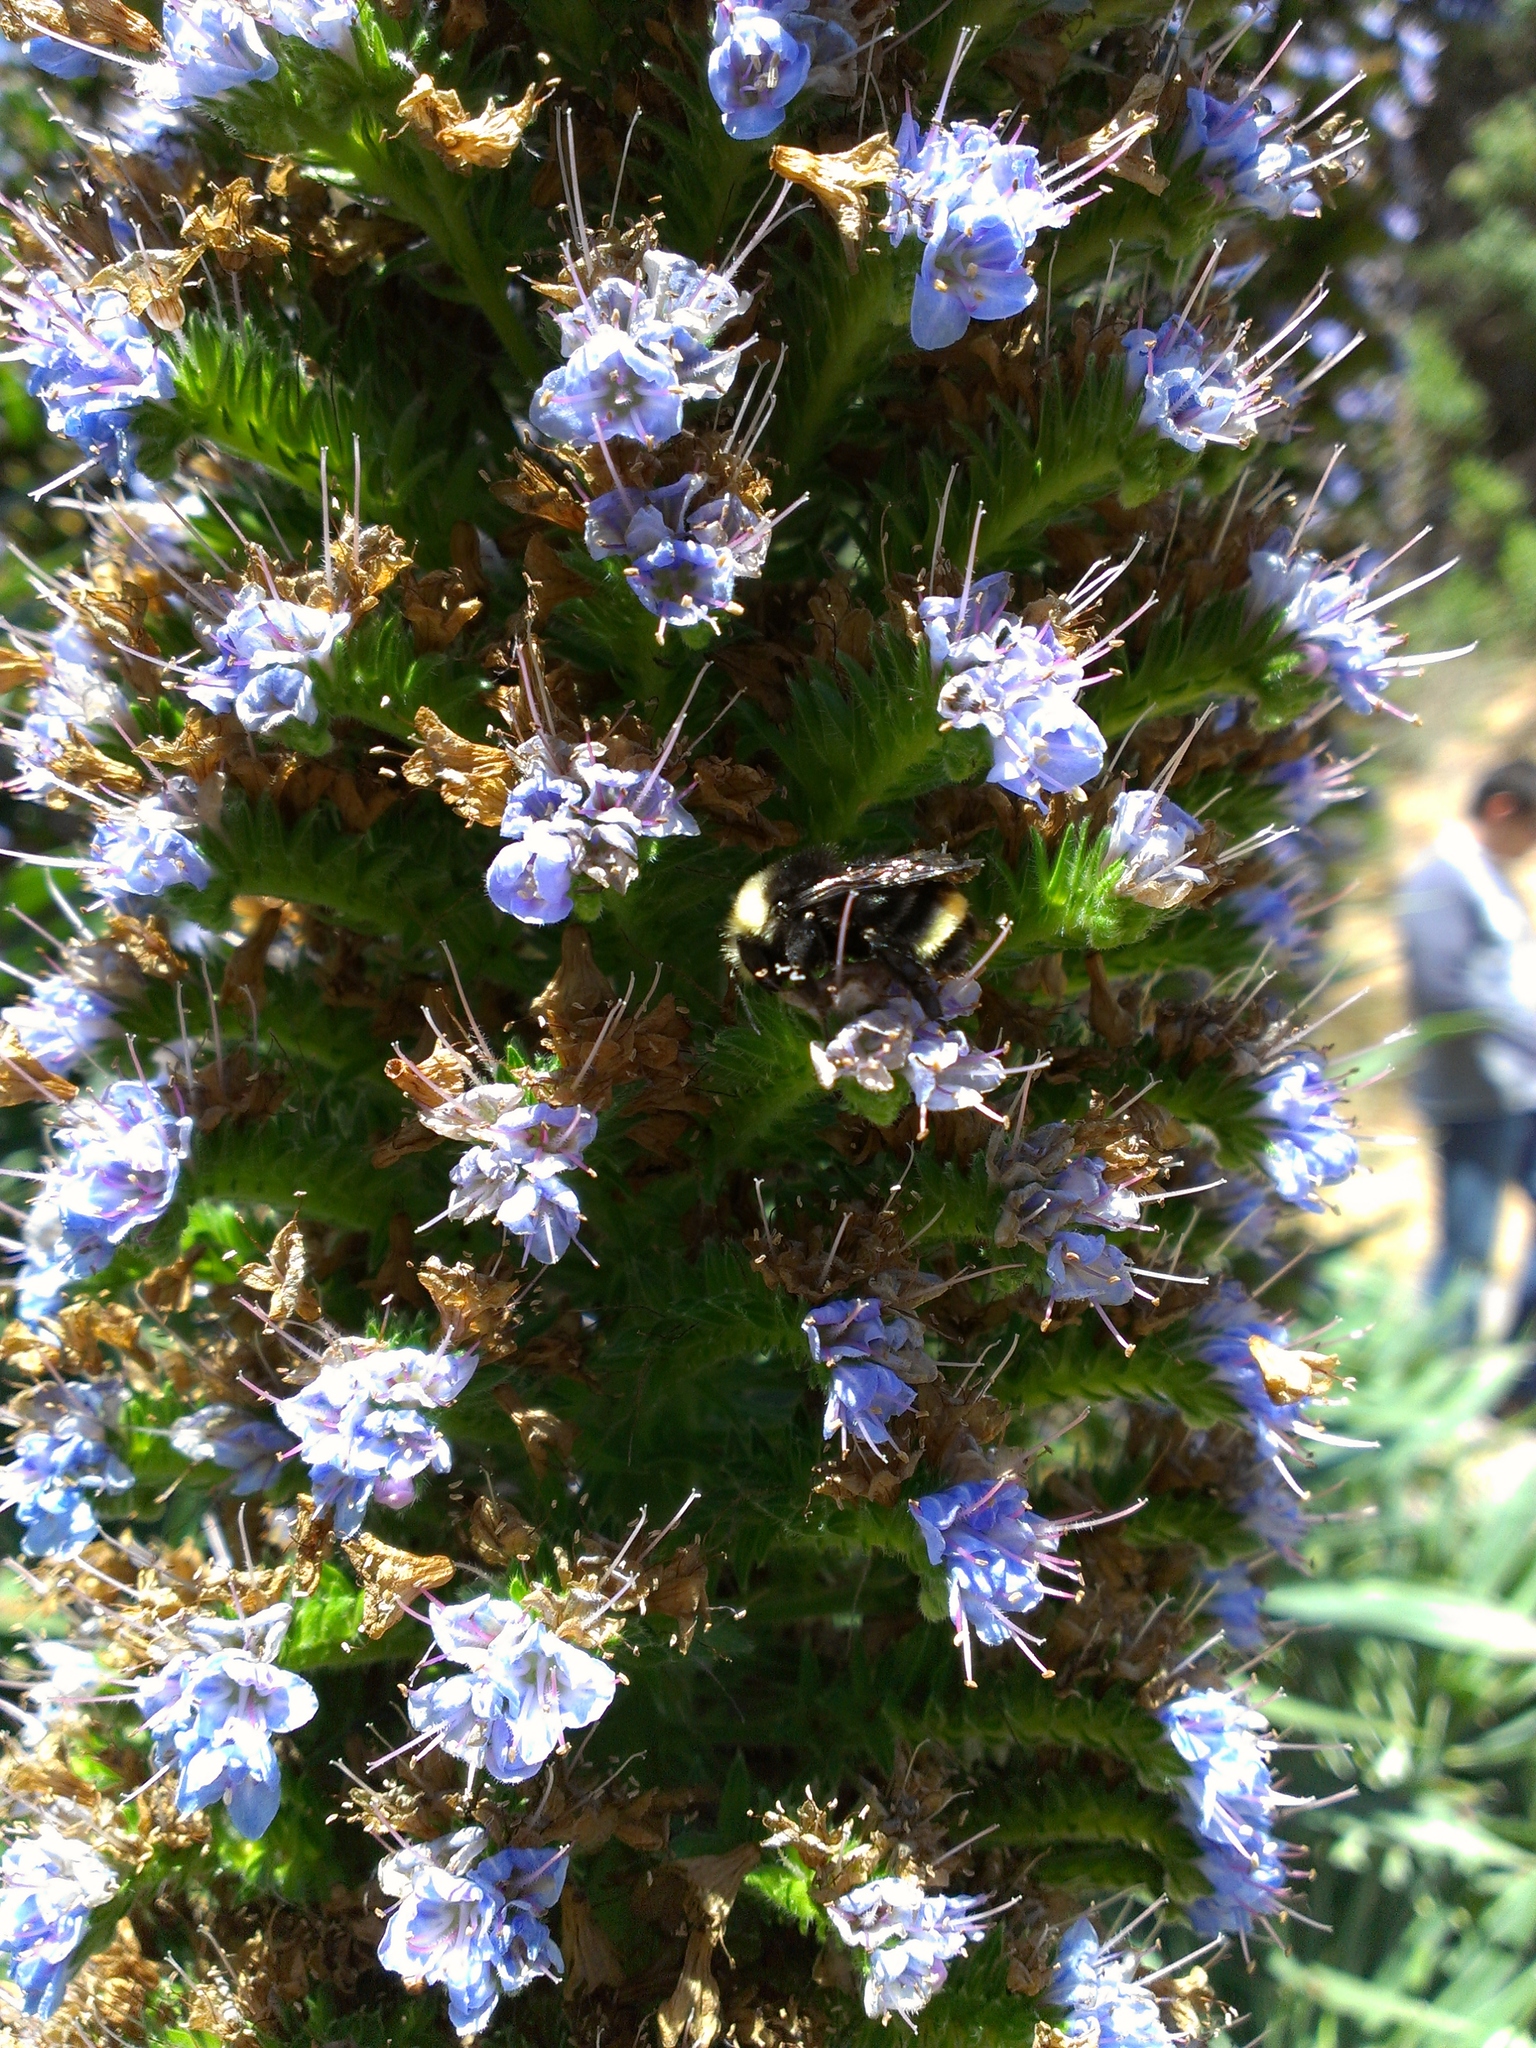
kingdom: Animalia
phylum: Arthropoda
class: Insecta
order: Hymenoptera
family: Apidae
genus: Pyrobombus
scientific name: Pyrobombus
